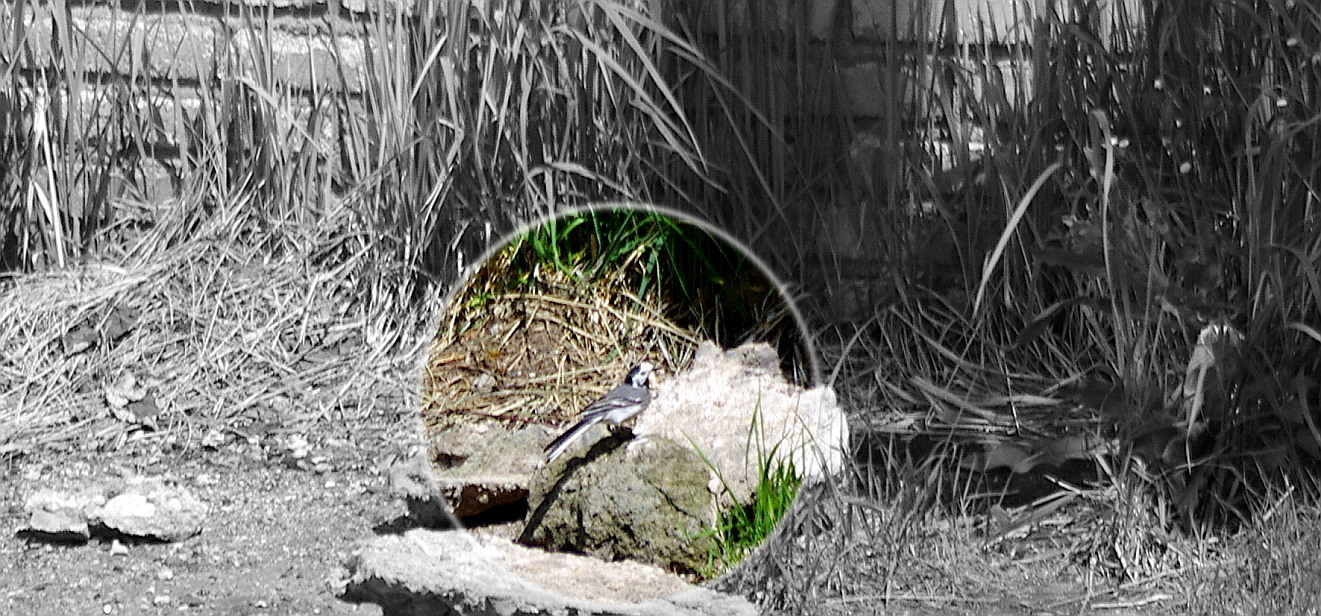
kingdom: Animalia
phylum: Chordata
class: Aves
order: Passeriformes
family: Motacillidae
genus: Motacilla
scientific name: Motacilla alba
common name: White wagtail
